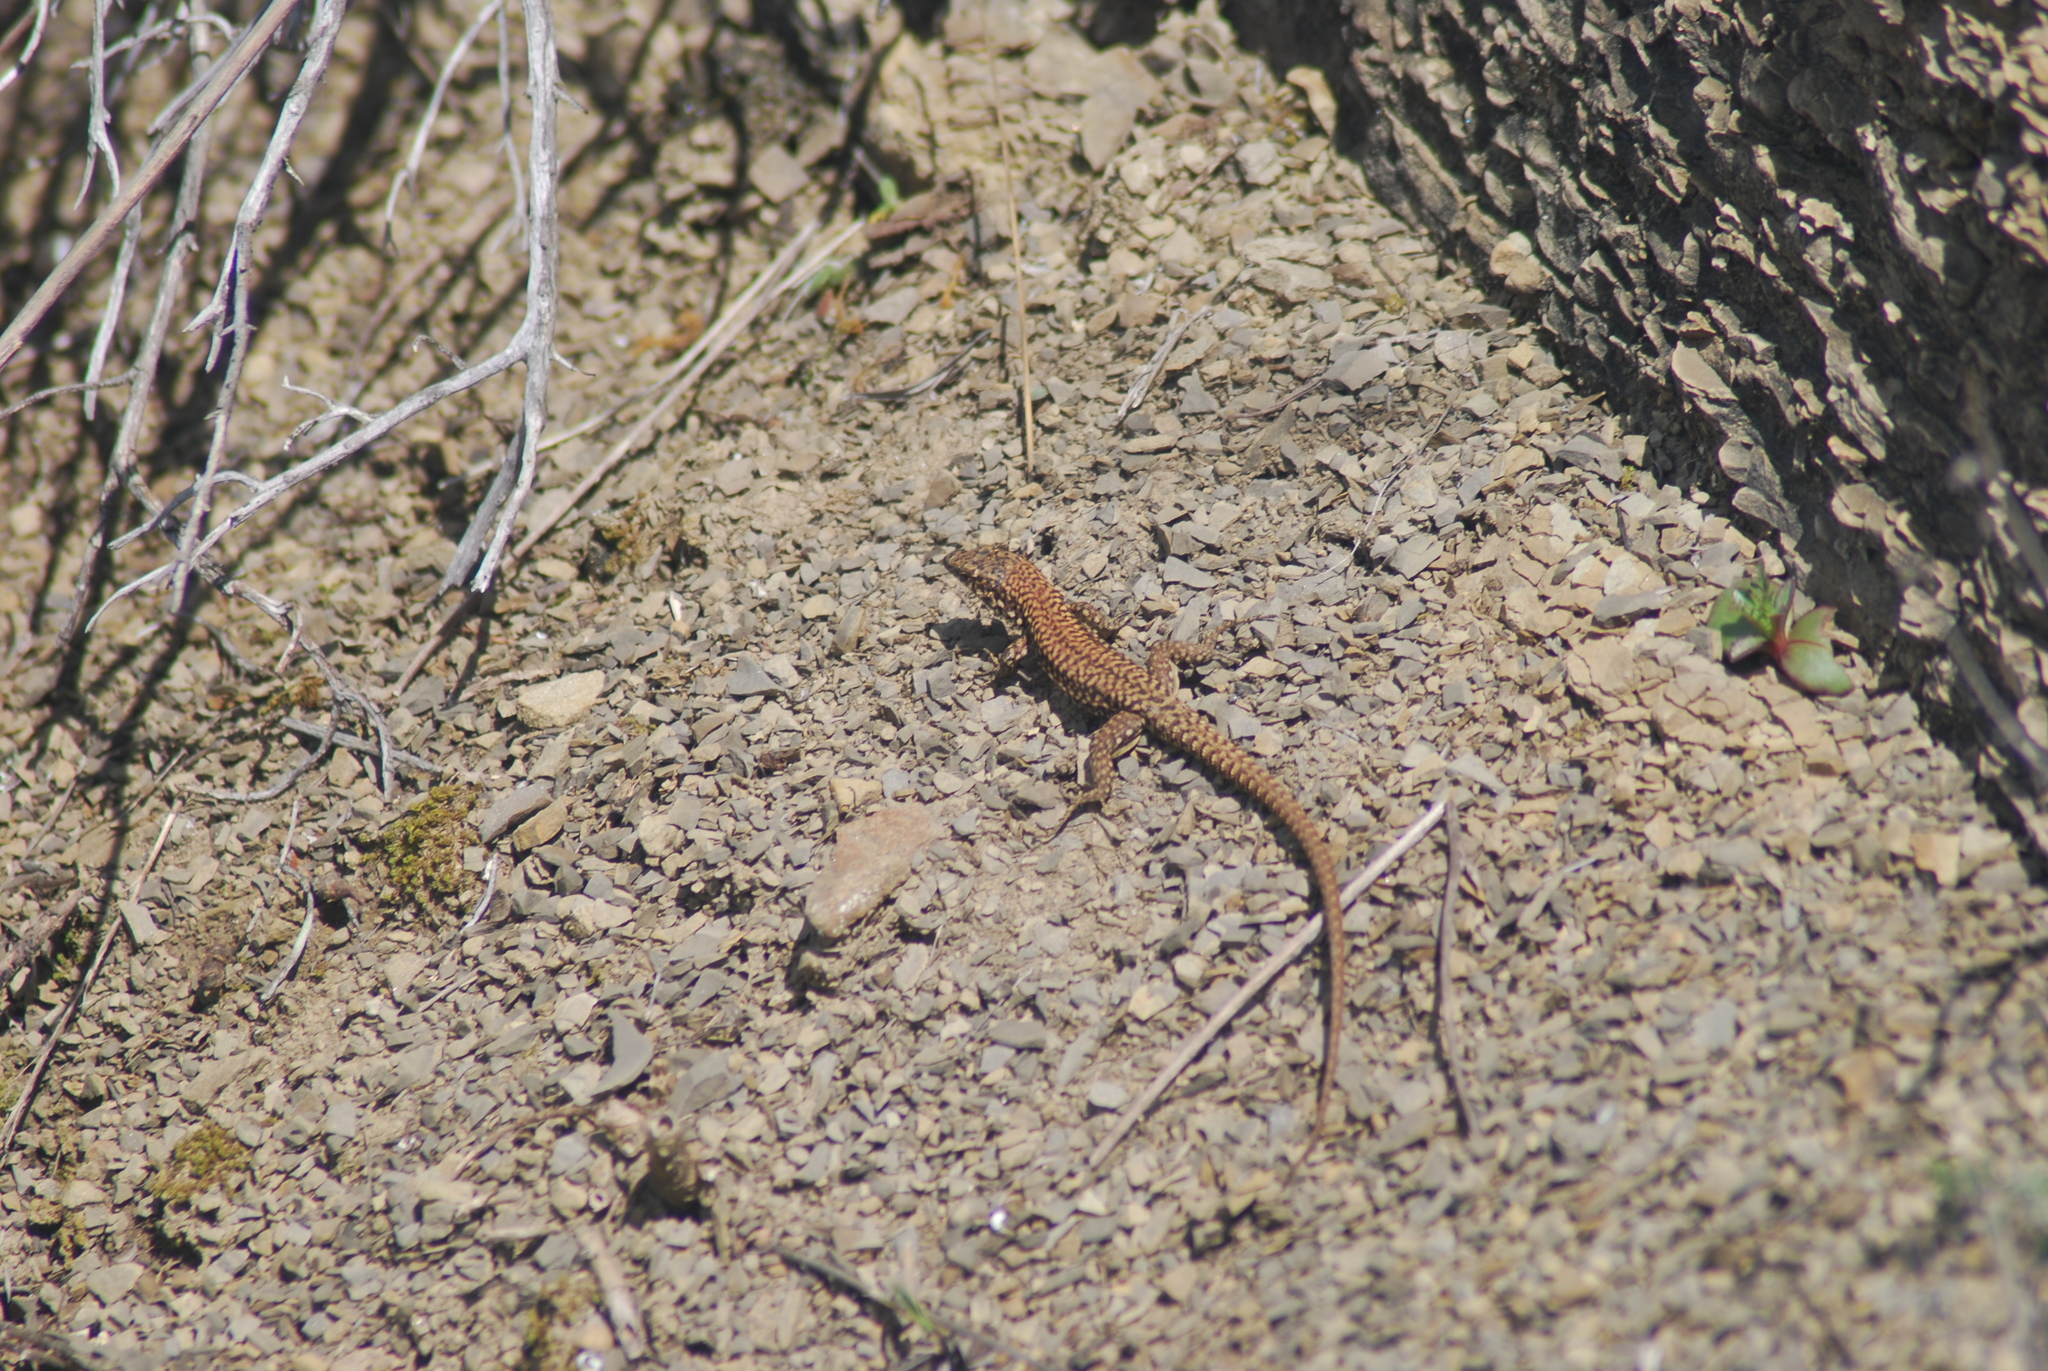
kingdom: Animalia
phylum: Chordata
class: Squamata
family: Lacertidae
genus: Podarcis
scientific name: Podarcis muralis
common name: Common wall lizard
